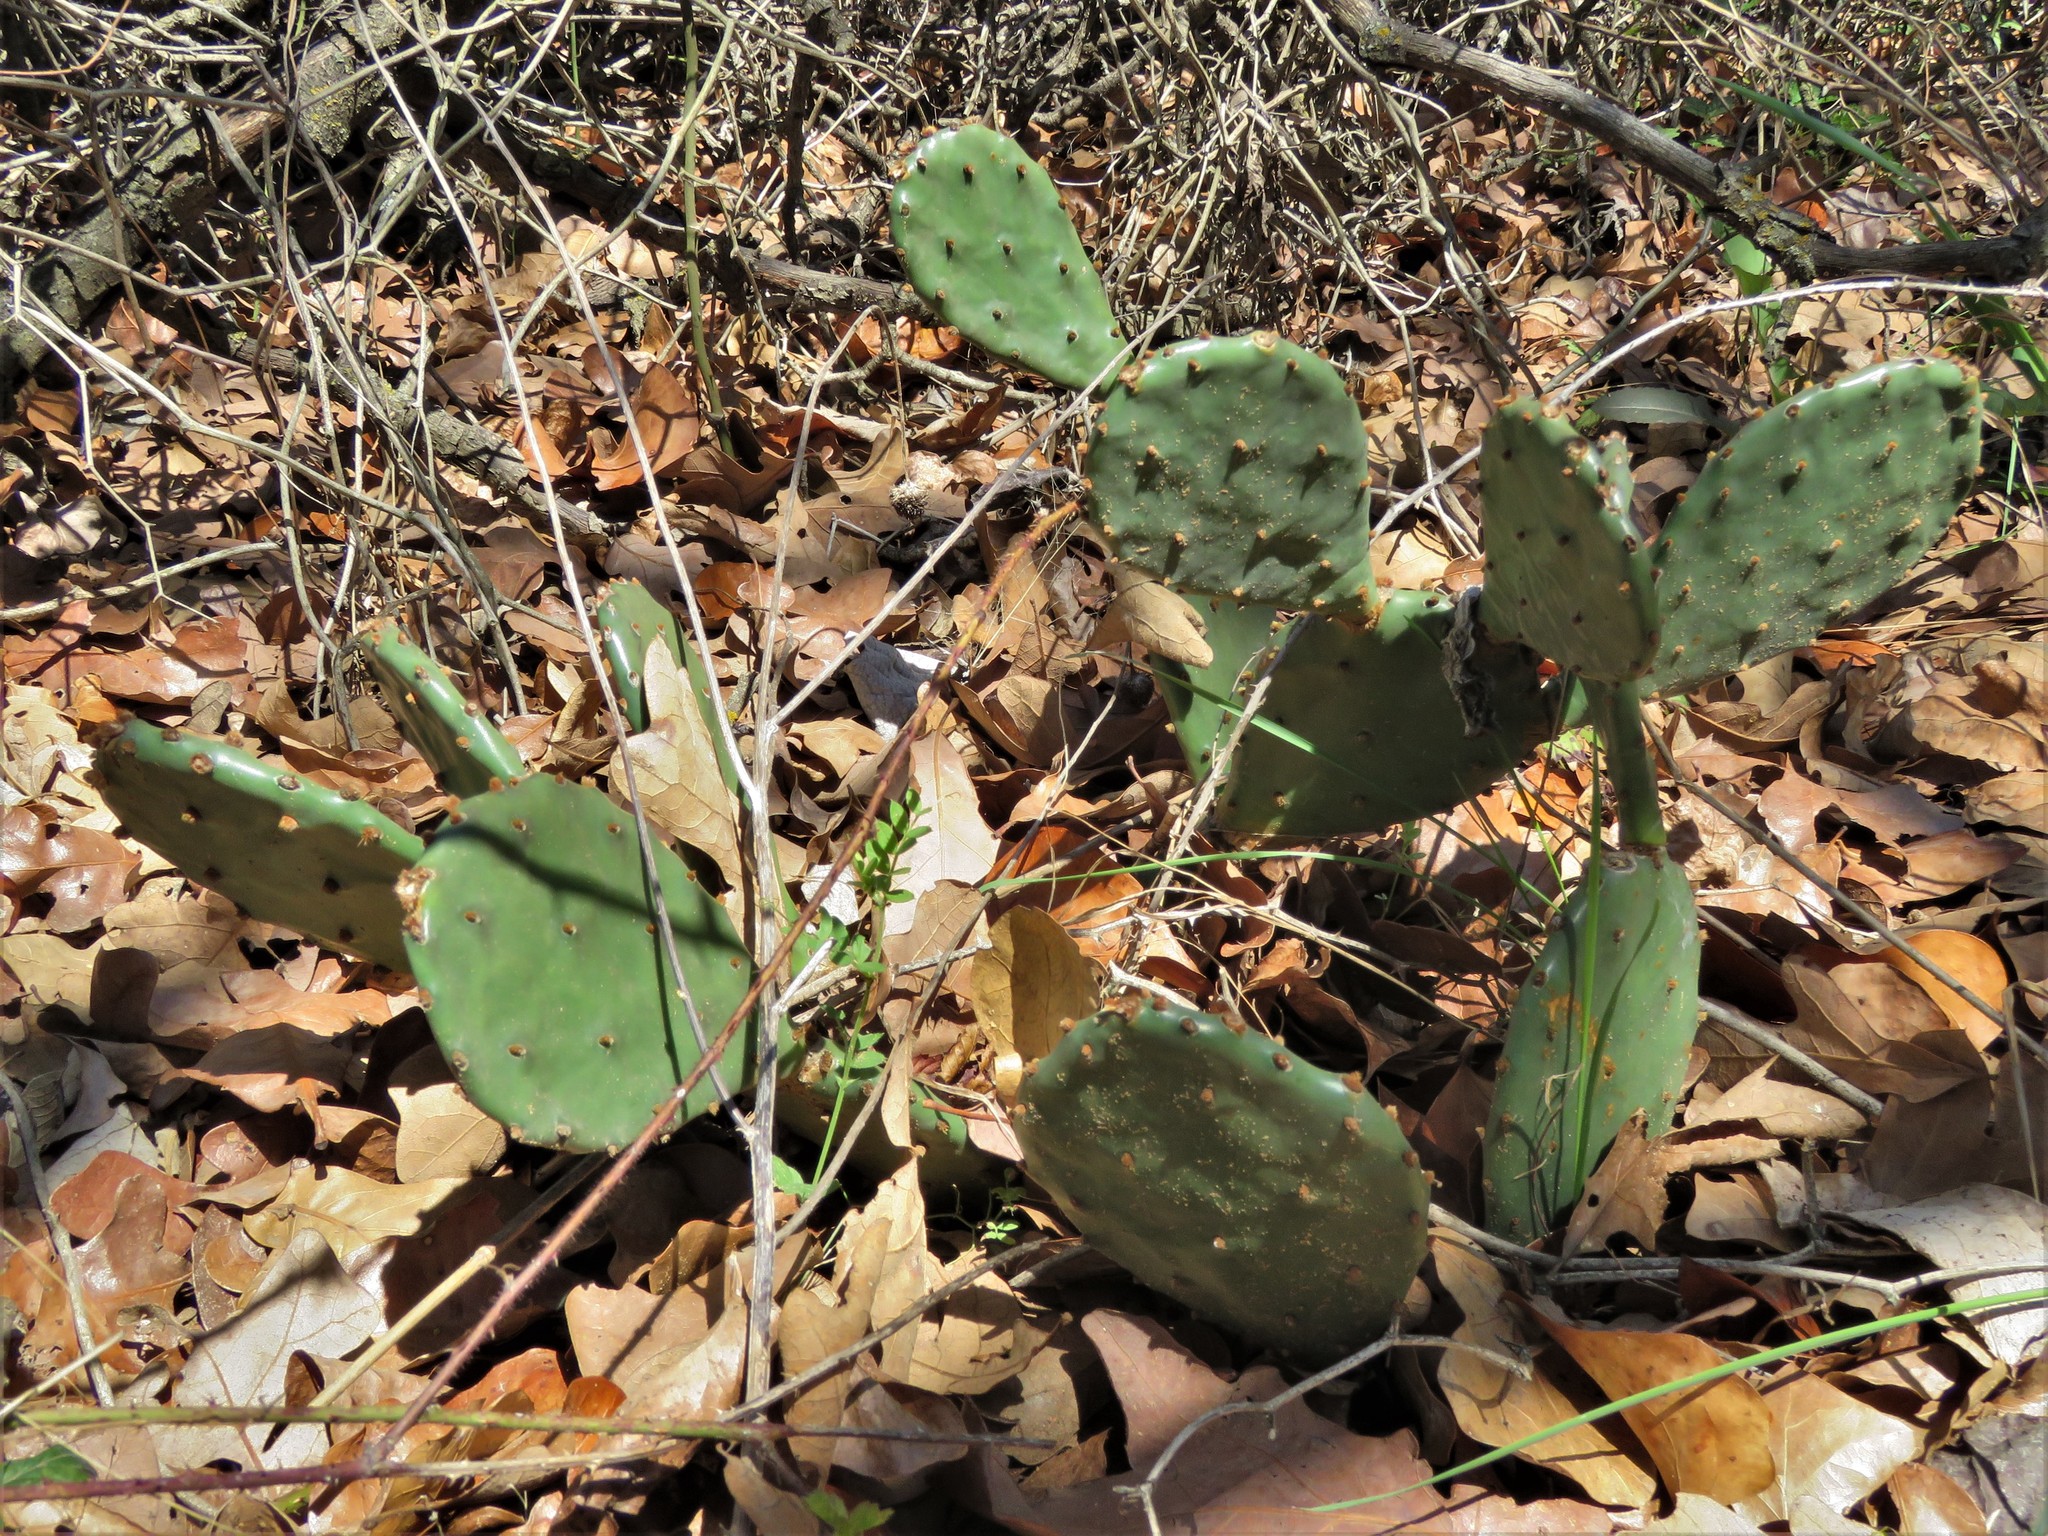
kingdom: Plantae
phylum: Tracheophyta
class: Magnoliopsida
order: Caryophyllales
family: Cactaceae
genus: Opuntia
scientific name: Opuntia macrorhiza
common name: Grassland pricklypear
